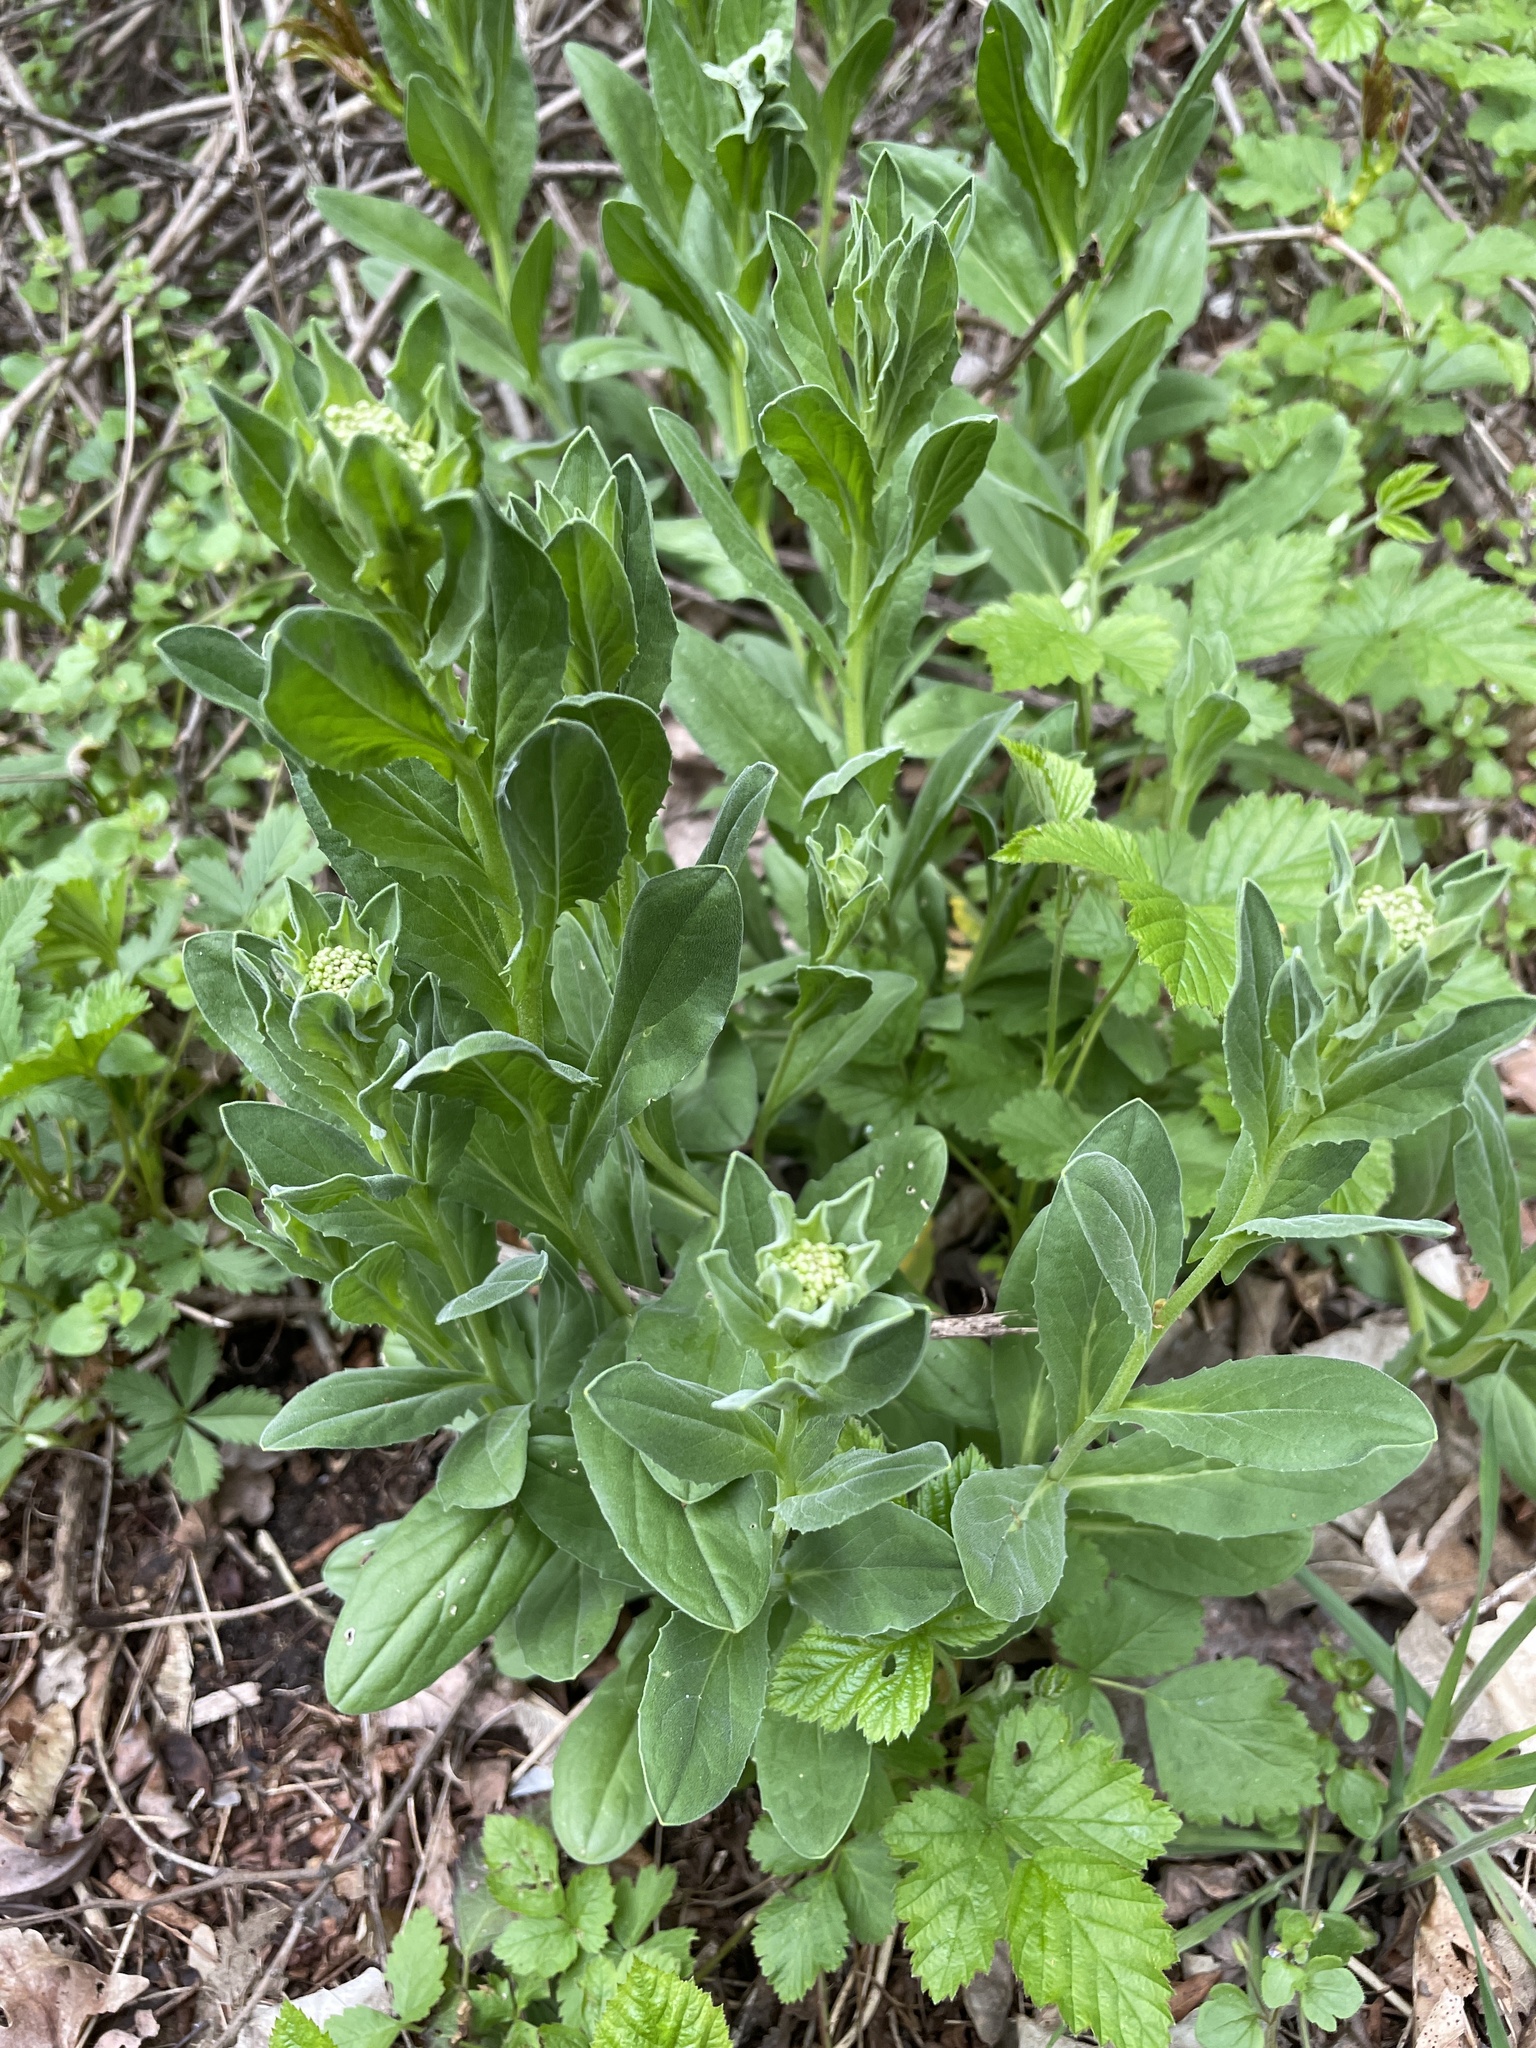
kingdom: Plantae
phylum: Tracheophyta
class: Magnoliopsida
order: Brassicales
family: Brassicaceae
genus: Lepidium
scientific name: Lepidium draba
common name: Hoary cress
